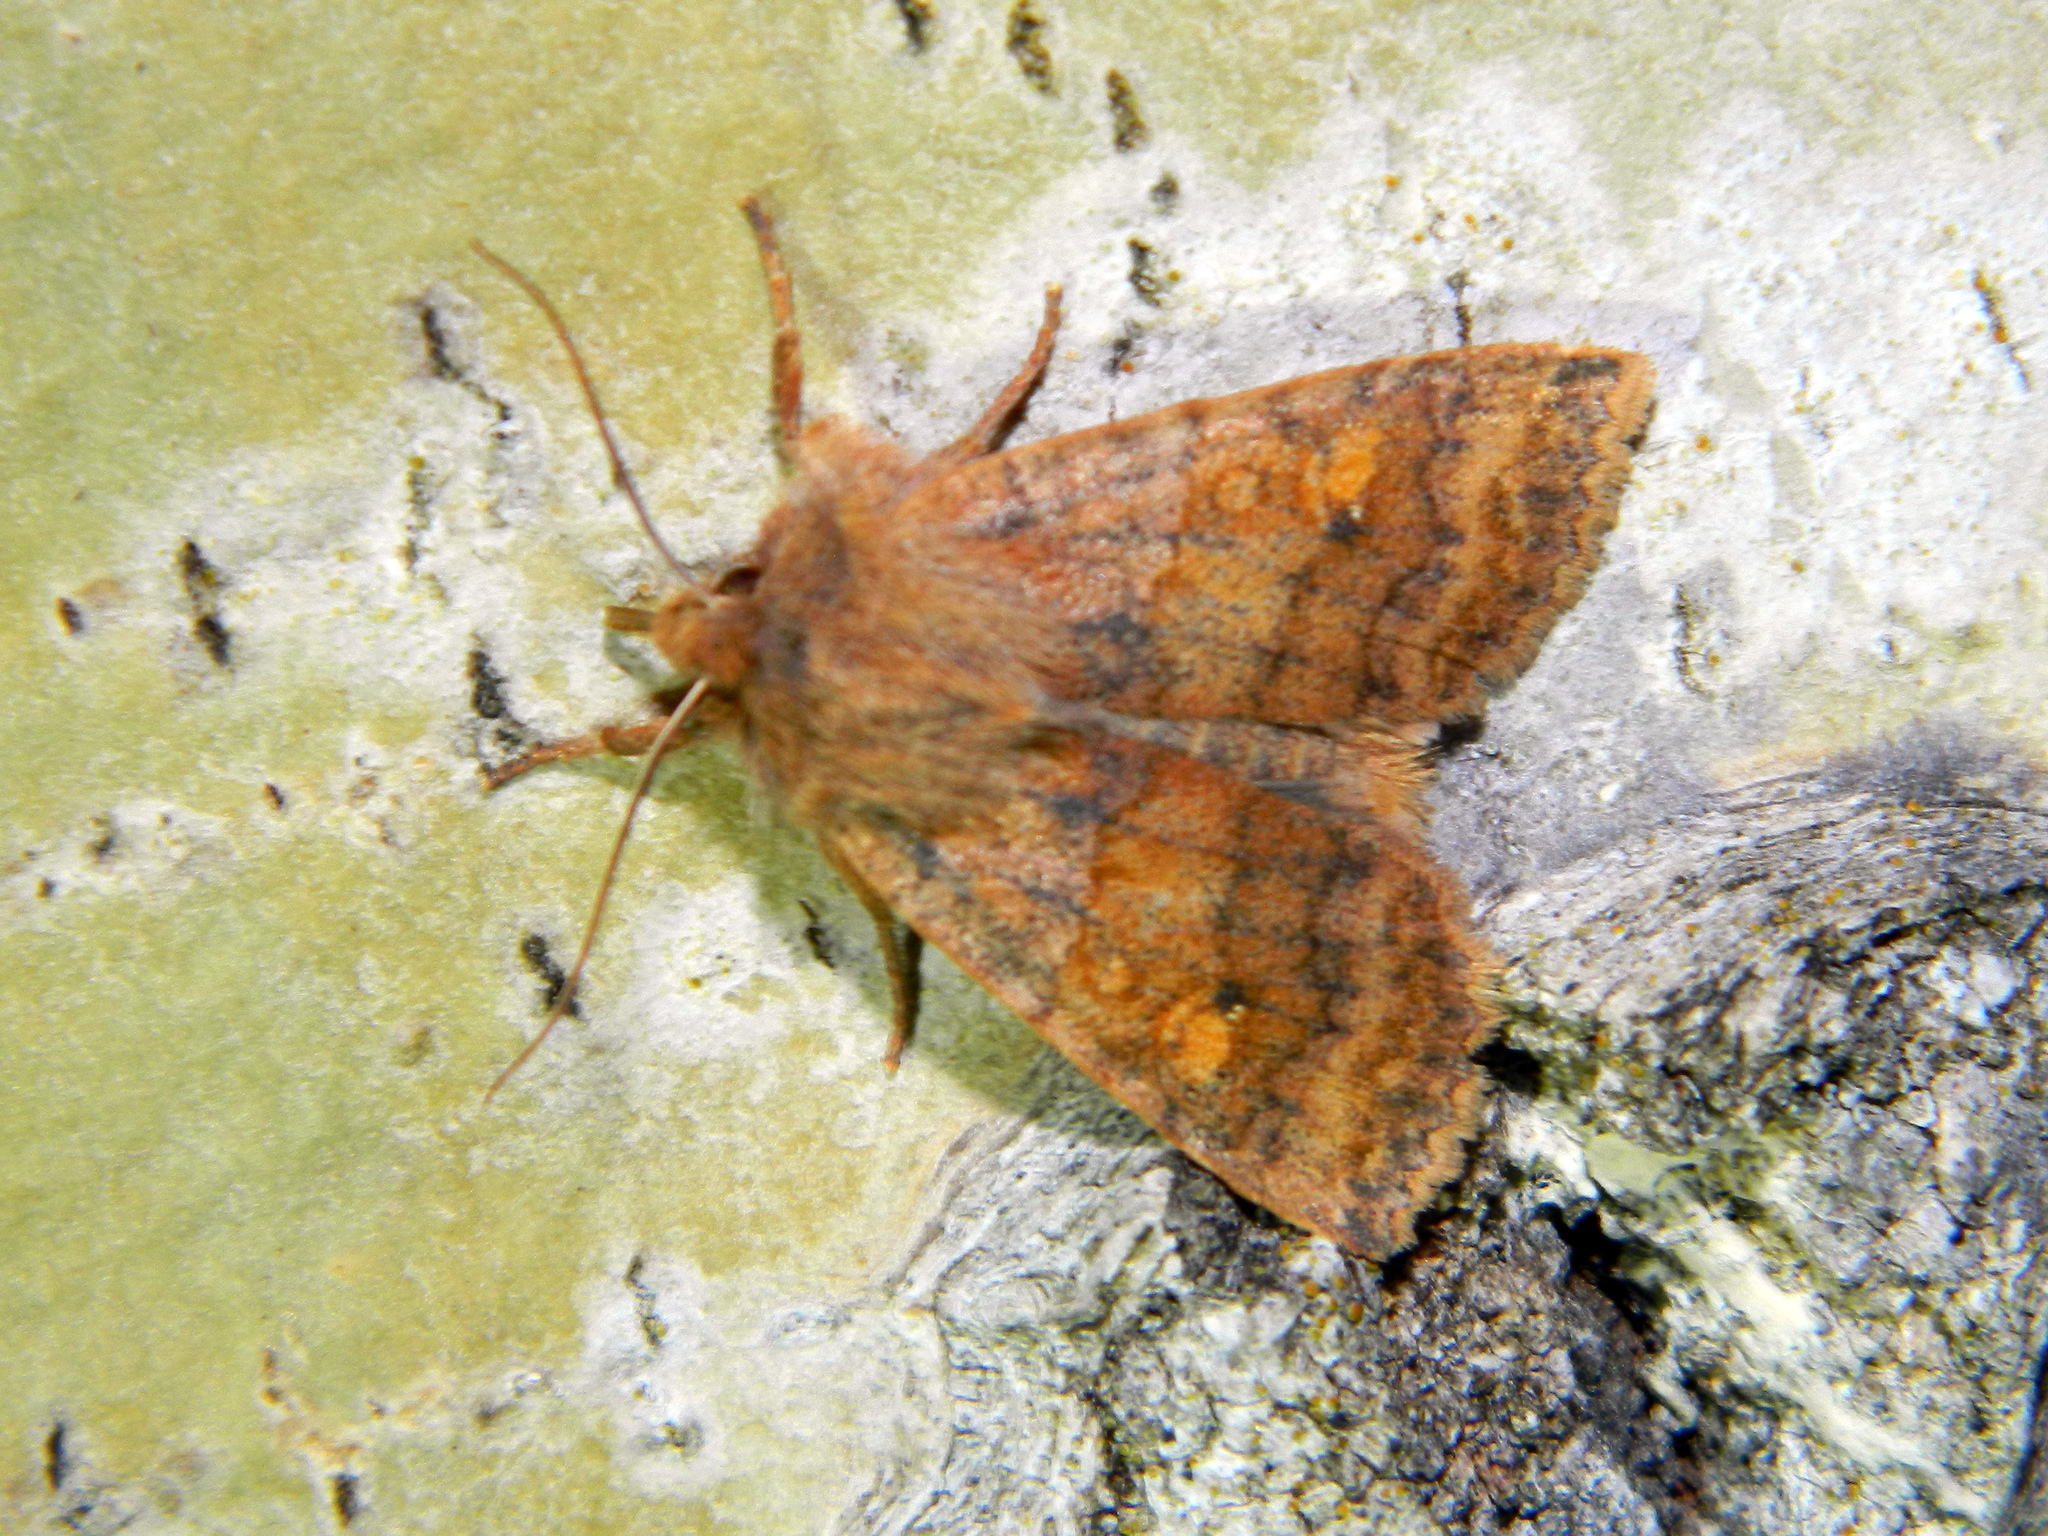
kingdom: Animalia
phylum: Arthropoda
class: Insecta
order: Lepidoptera
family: Noctuidae
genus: Eupsilia
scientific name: Eupsilia tristigmata
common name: Three-spotted sallow
